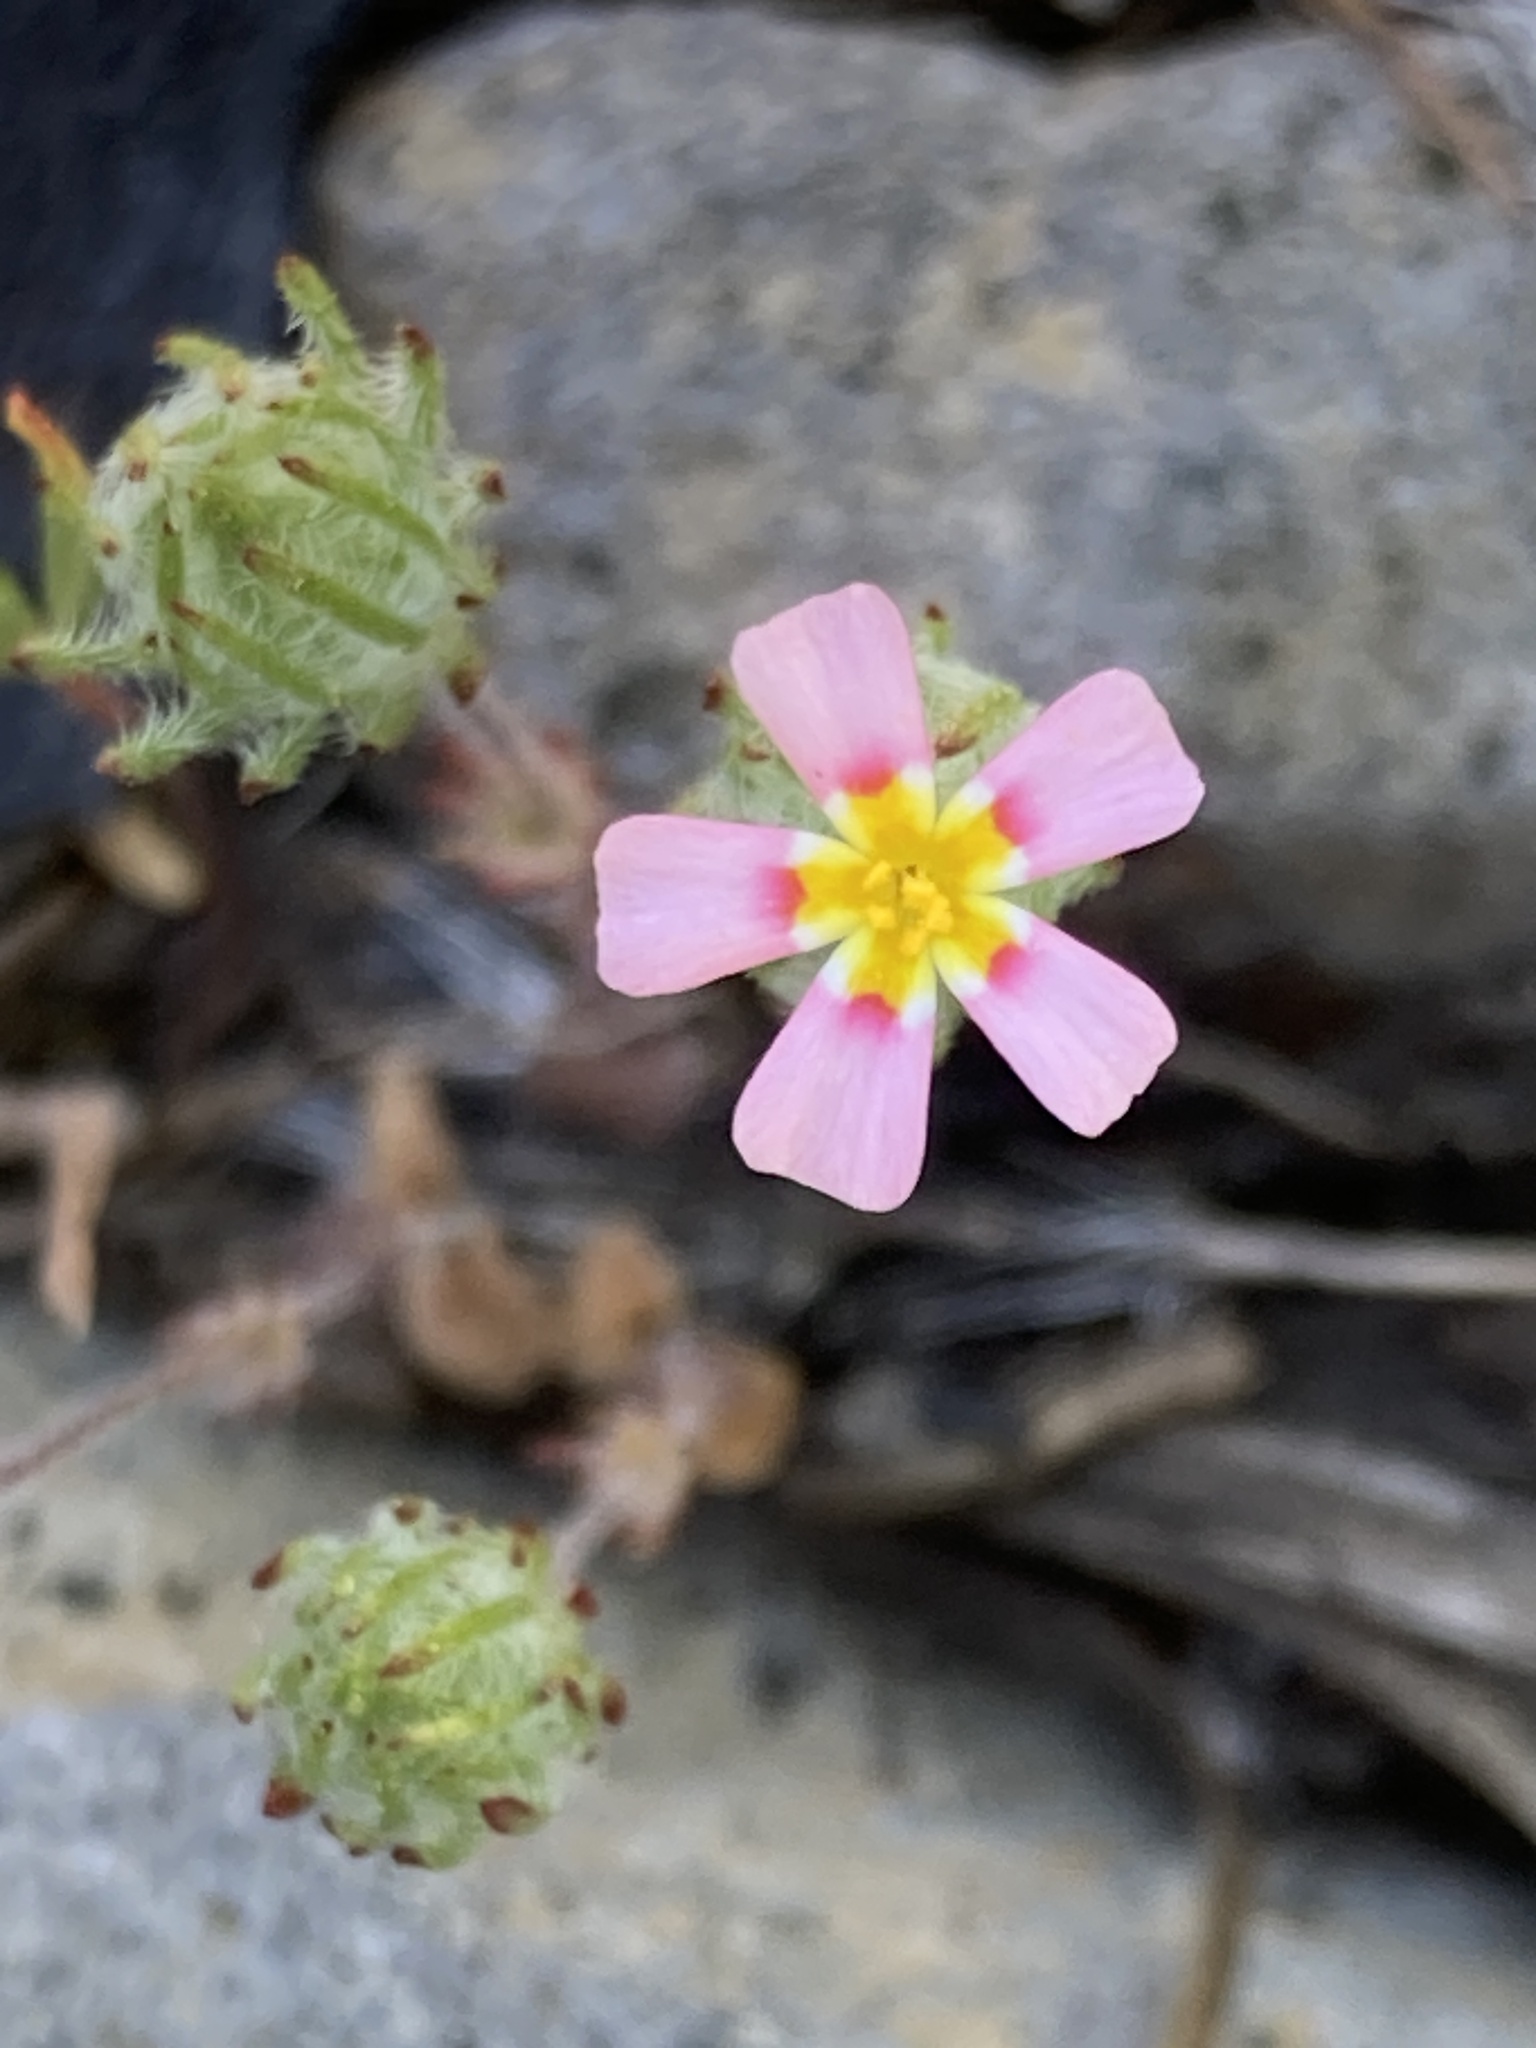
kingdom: Plantae
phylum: Tracheophyta
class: Magnoliopsida
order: Ericales
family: Polemoniaceae
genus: Leptosiphon
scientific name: Leptosiphon ciliatus
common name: Whiskerbrush
